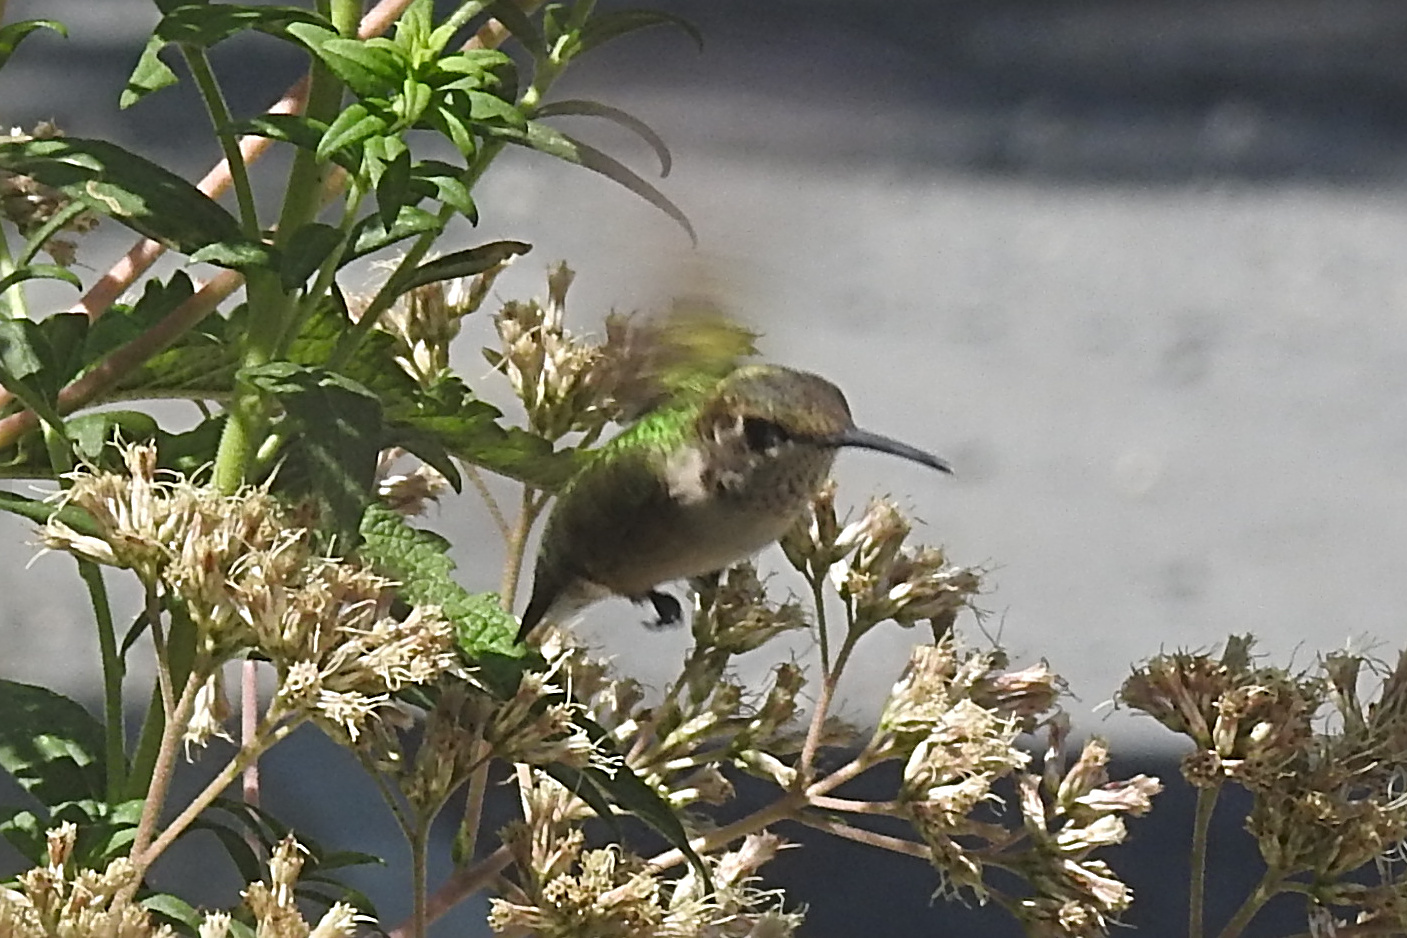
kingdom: Animalia
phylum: Chordata
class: Aves
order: Apodiformes
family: Trochilidae
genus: Archilochus
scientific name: Archilochus colubris
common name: Ruby-throated hummingbird
